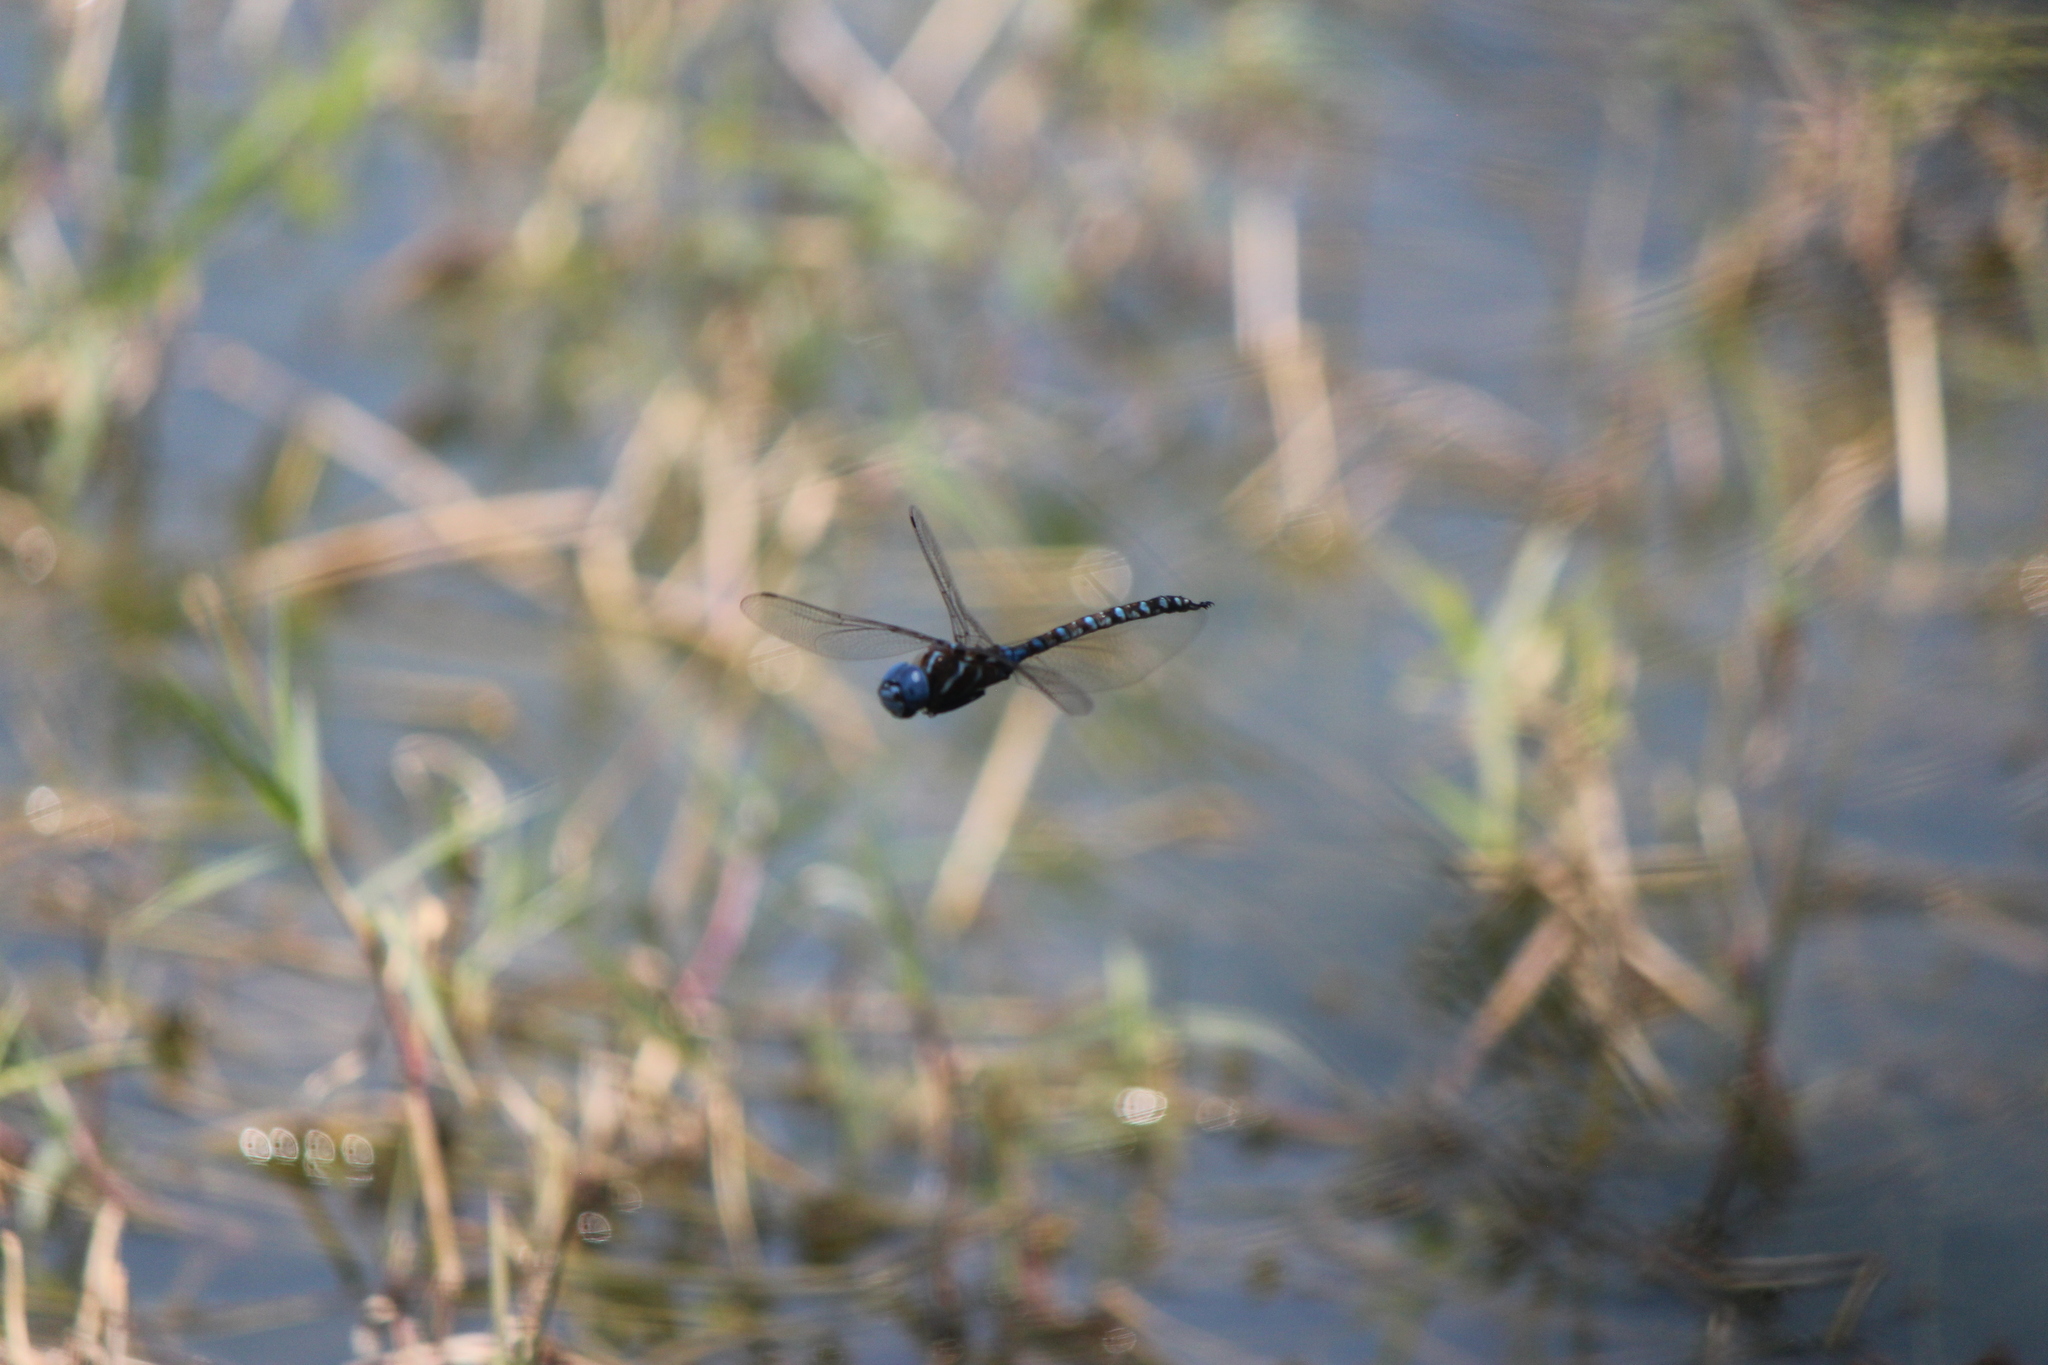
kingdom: Animalia
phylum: Arthropoda
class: Insecta
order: Odonata
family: Aeshnidae
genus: Rhionaeschna
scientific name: Rhionaeschna multicolor
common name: Blue-eyed darner
